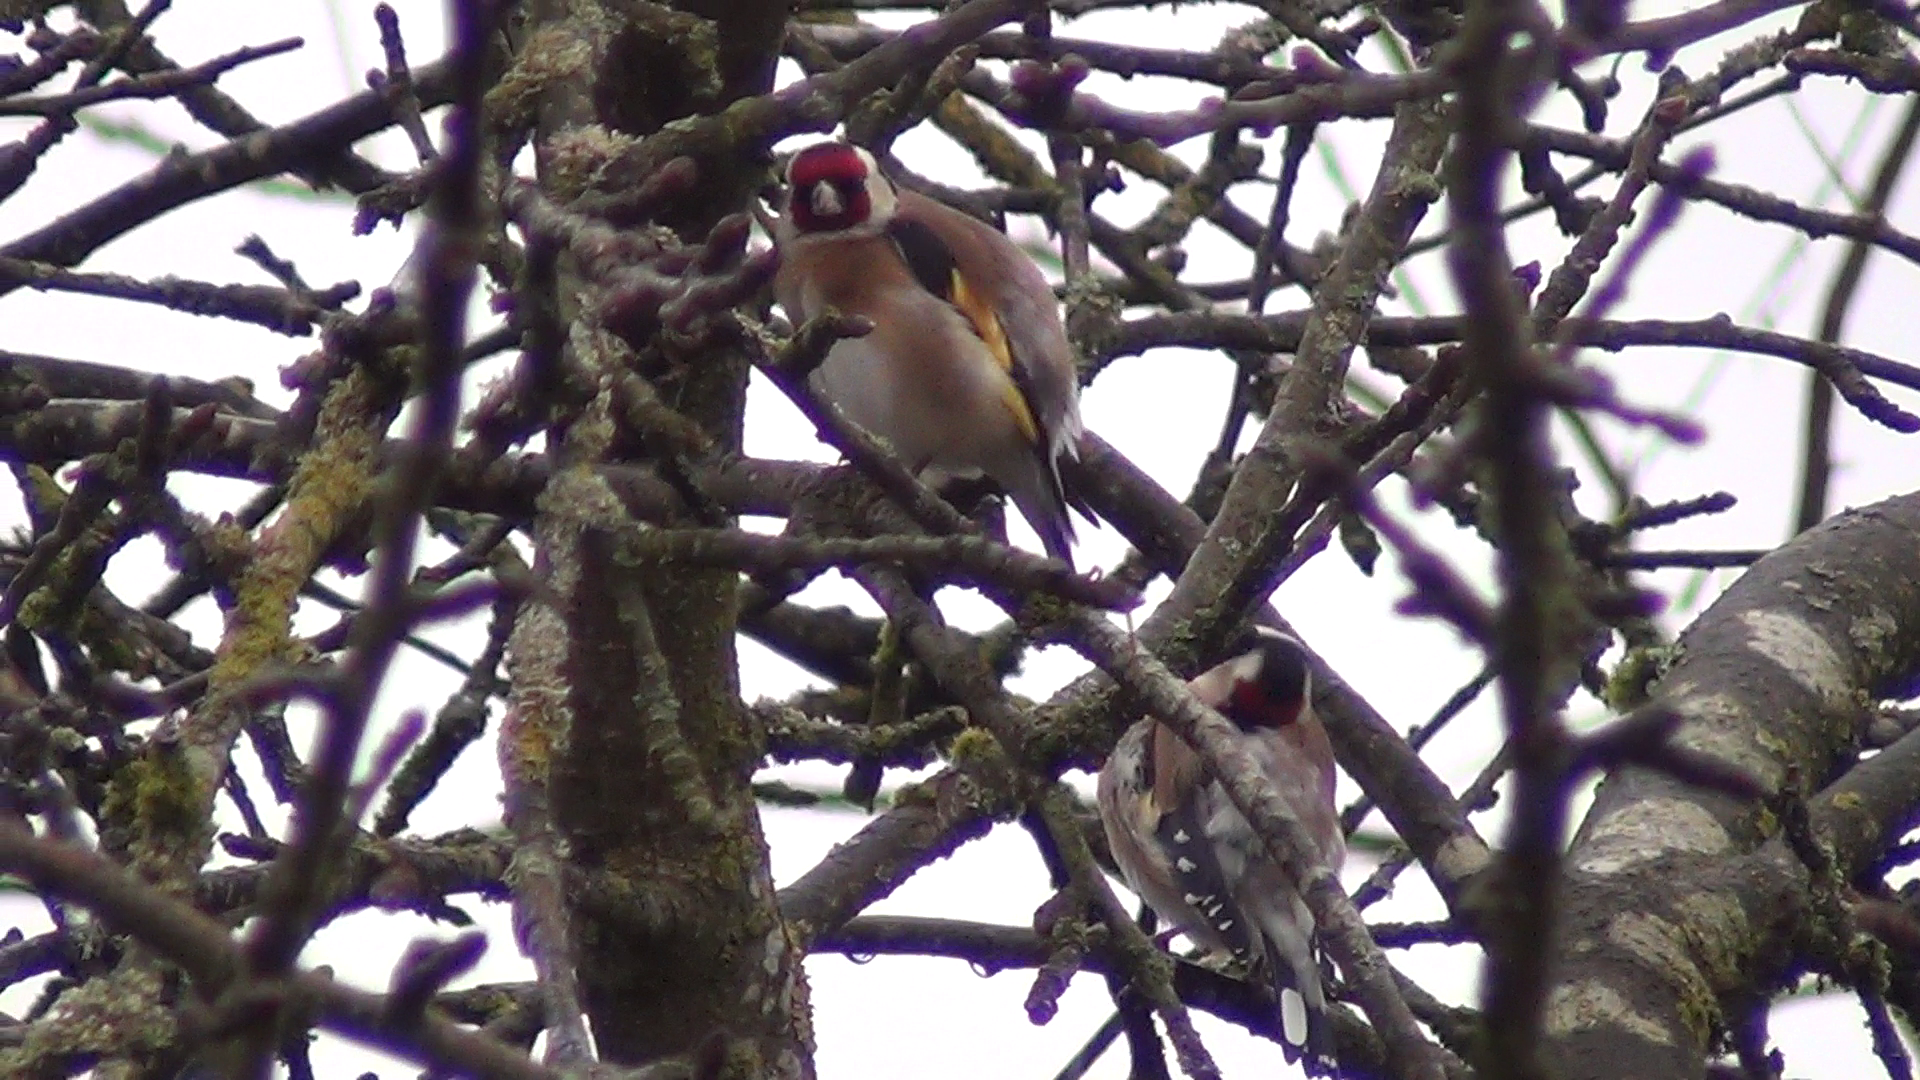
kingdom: Animalia
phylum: Chordata
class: Aves
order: Passeriformes
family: Fringillidae
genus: Carduelis
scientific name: Carduelis carduelis
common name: European goldfinch
